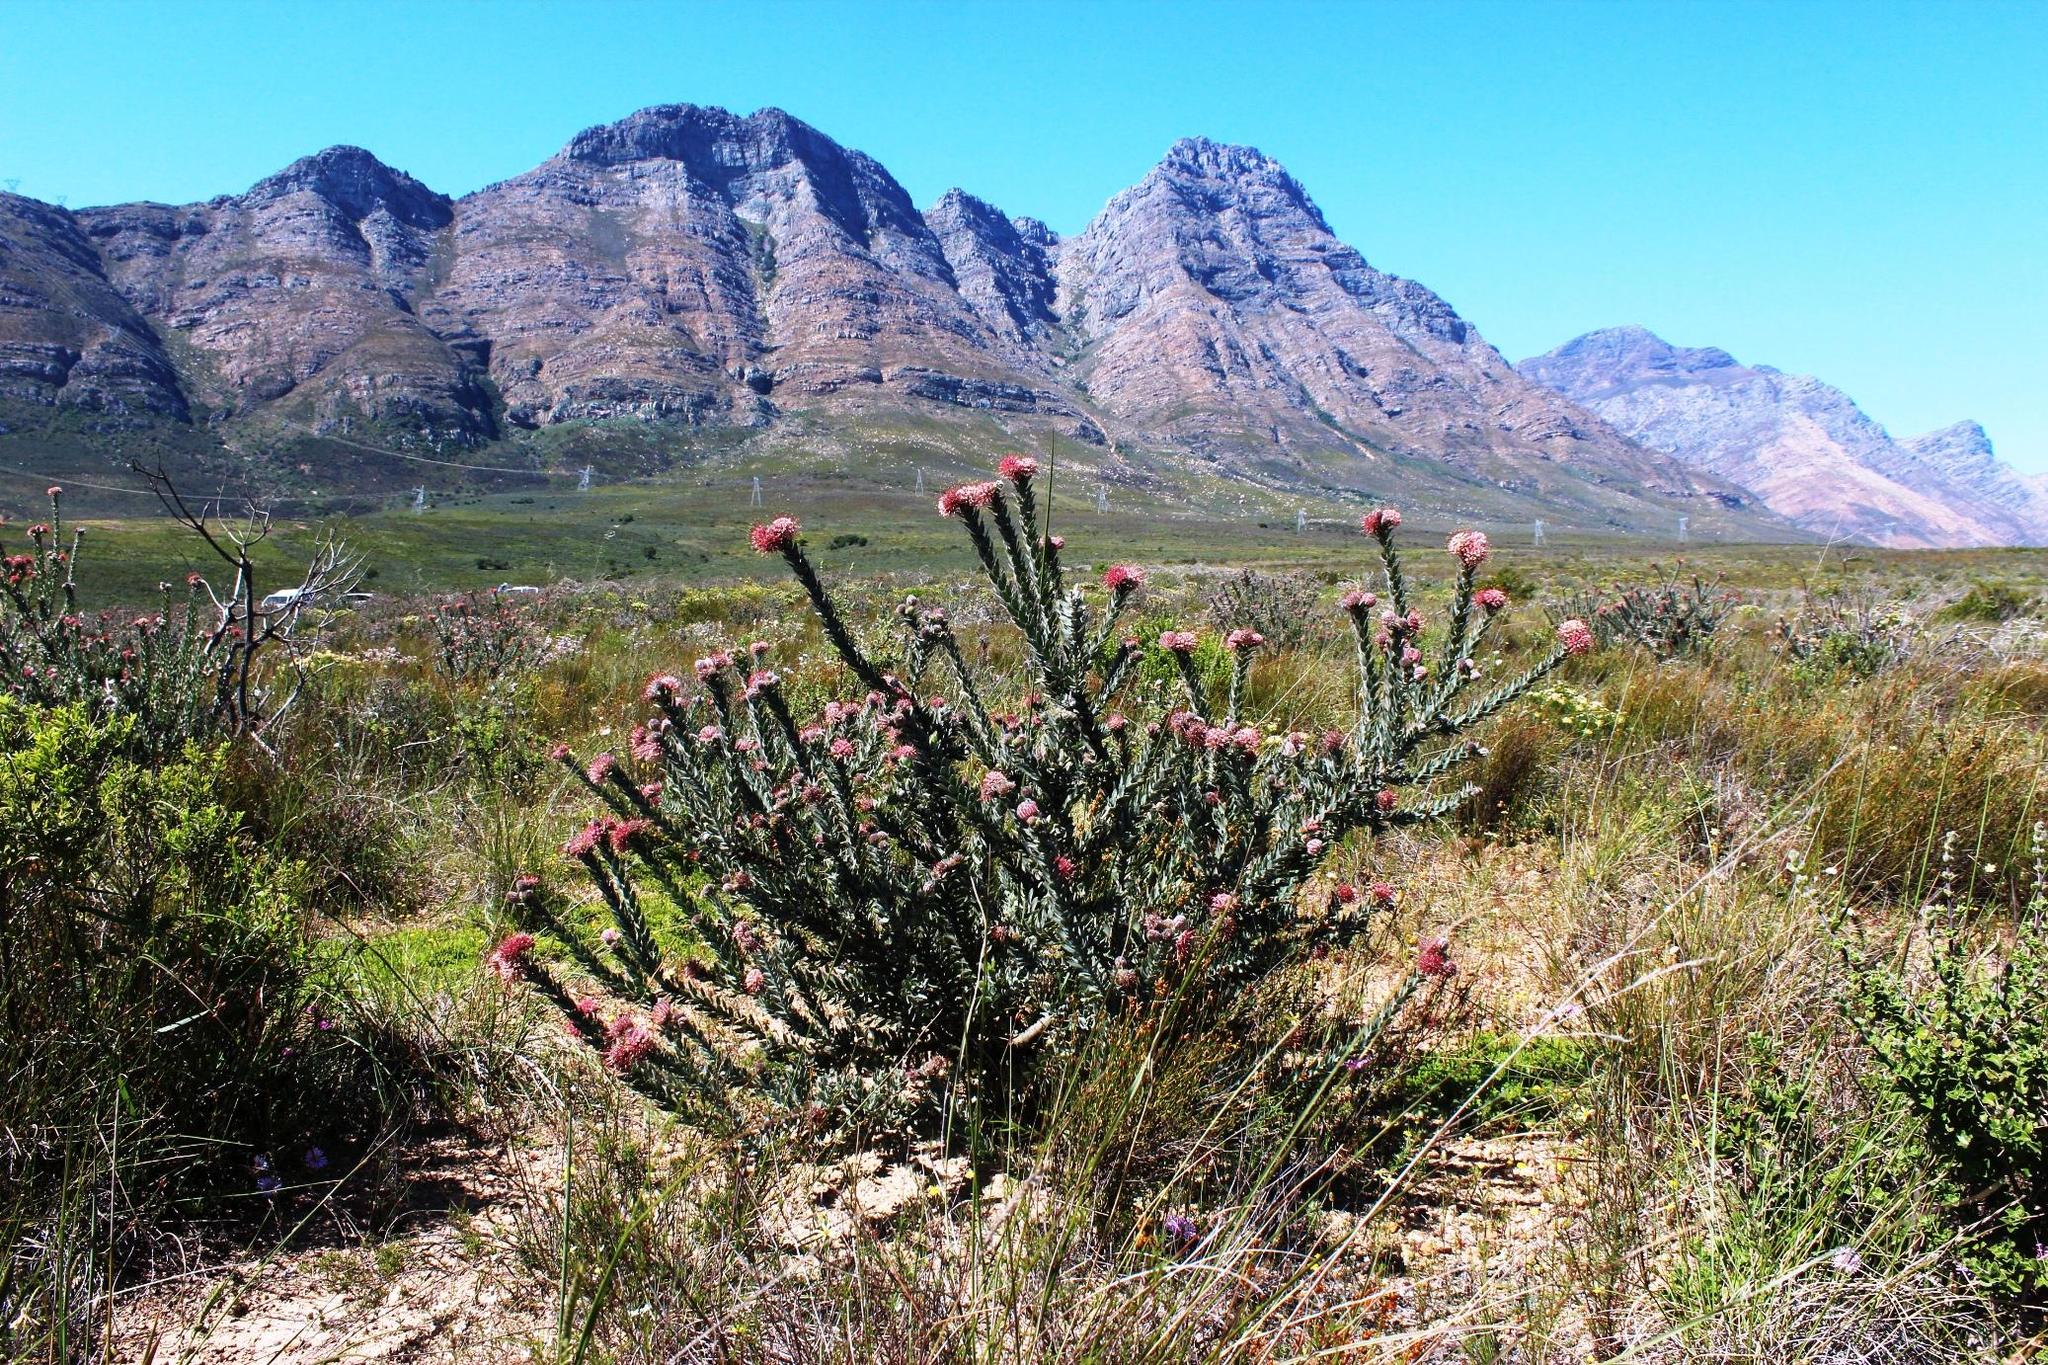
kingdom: Plantae
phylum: Tracheophyta
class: Magnoliopsida
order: Proteales
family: Proteaceae
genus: Leucospermum
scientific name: Leucospermum calligerum
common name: Arid pincushion
